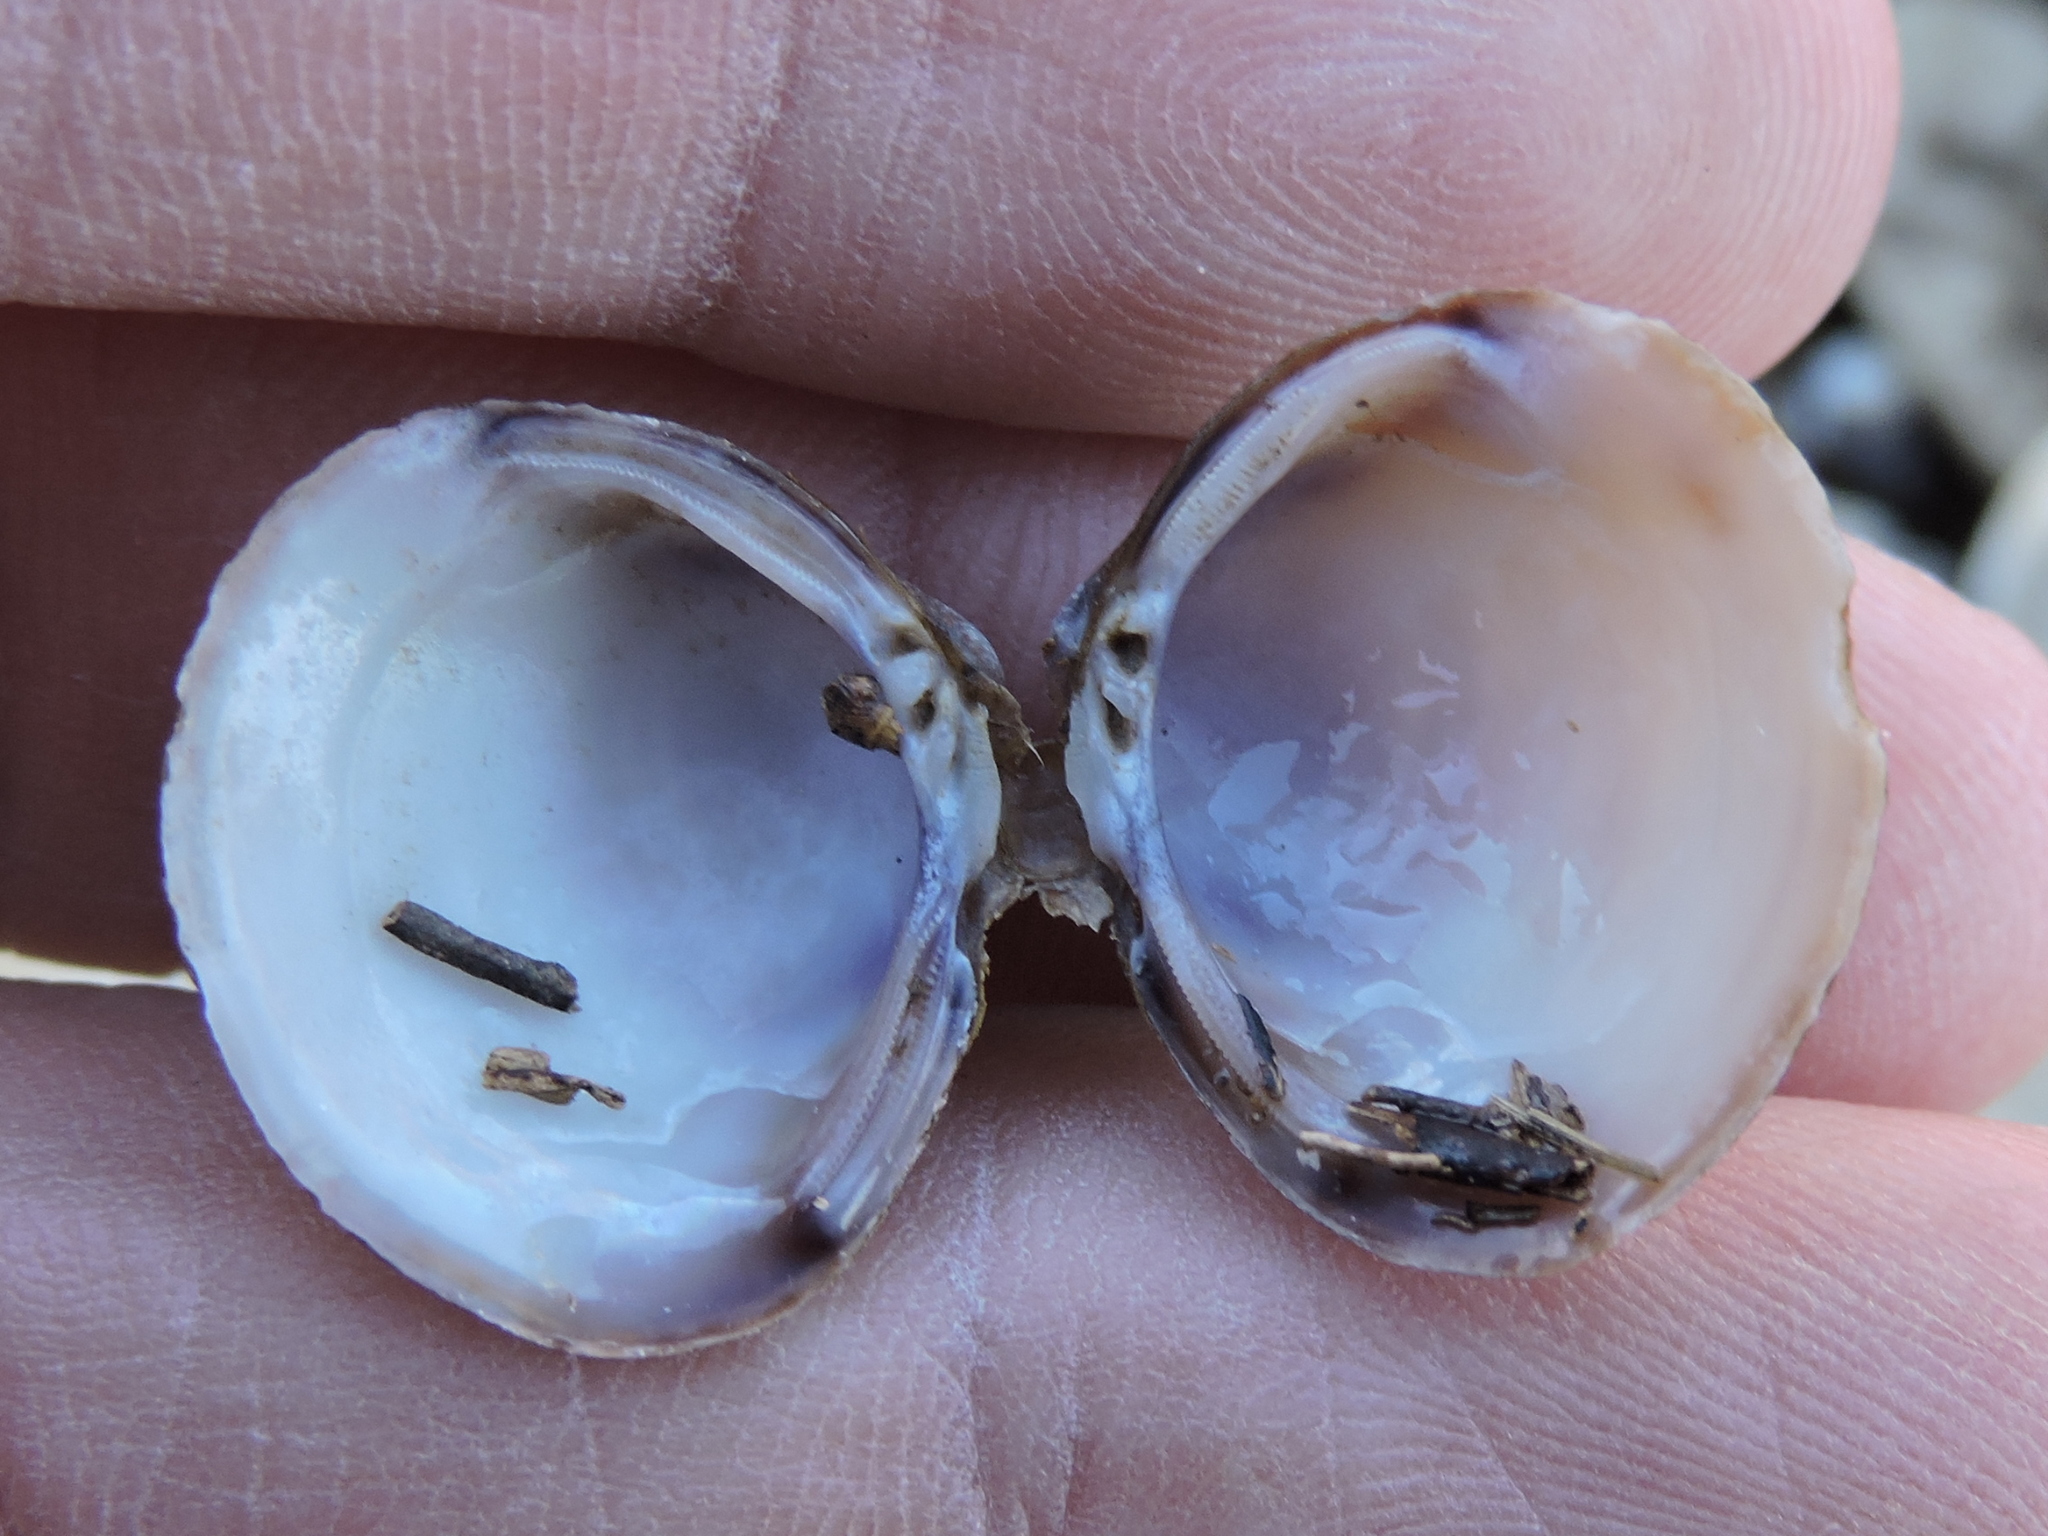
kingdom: Animalia
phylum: Mollusca
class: Bivalvia
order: Venerida
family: Cyrenidae
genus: Corbicula
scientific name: Corbicula fluminea
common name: Asian clam
